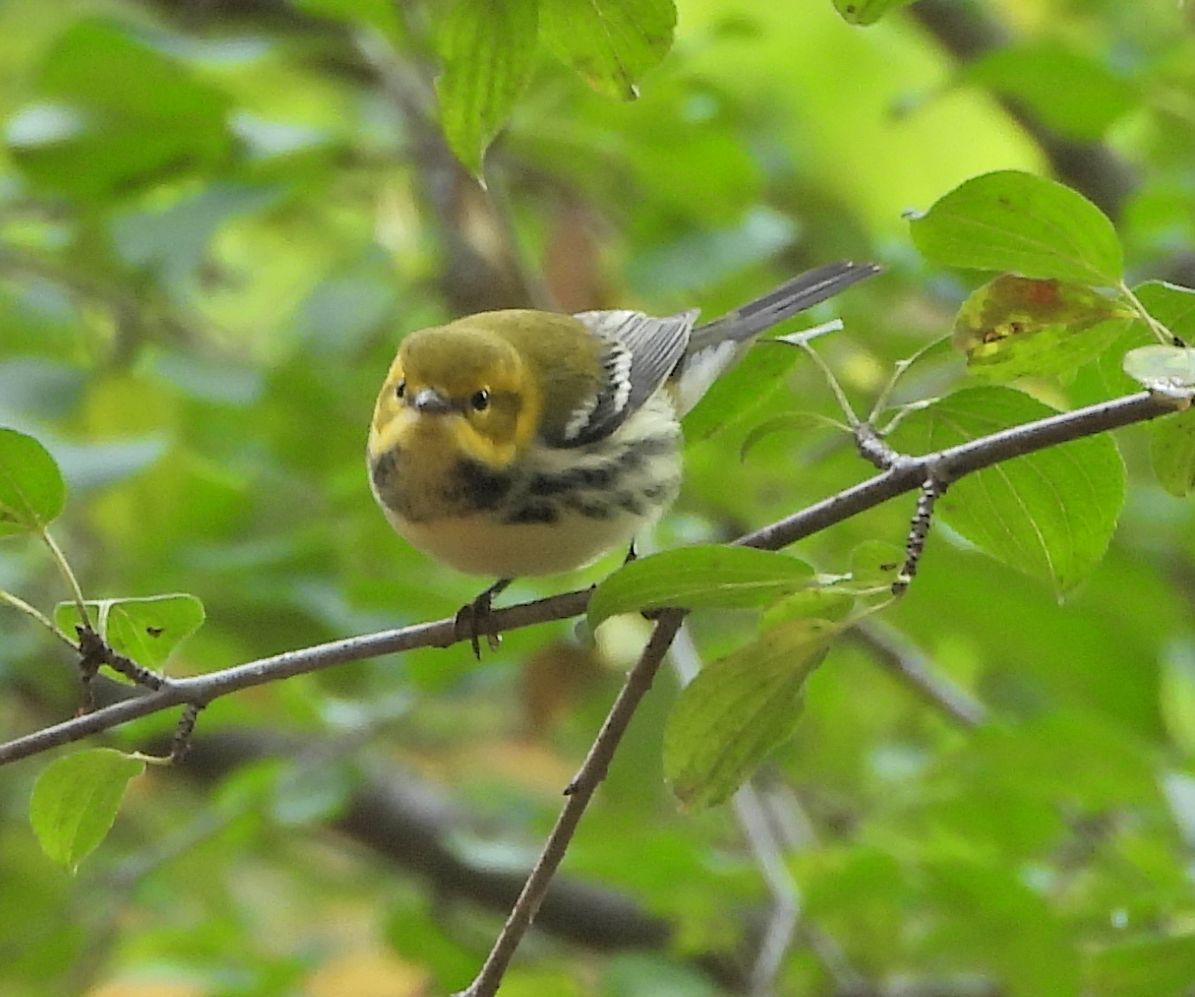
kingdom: Animalia
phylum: Chordata
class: Aves
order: Passeriformes
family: Parulidae
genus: Setophaga
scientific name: Setophaga virens
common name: Black-throated green warbler
